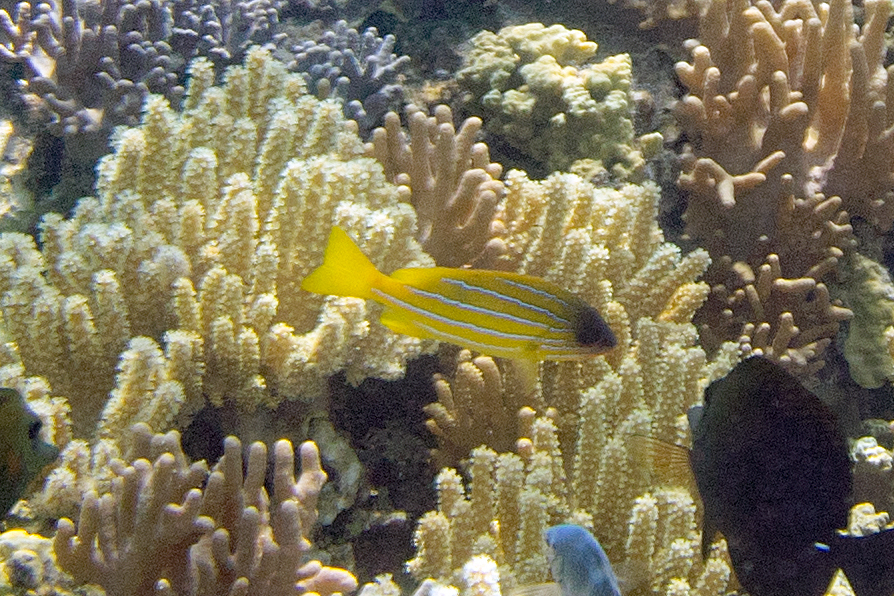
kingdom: Animalia
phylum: Chordata
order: Perciformes
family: Lutjanidae
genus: Lutjanus
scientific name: Lutjanus quinquelineatus
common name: Five-lined snapper
